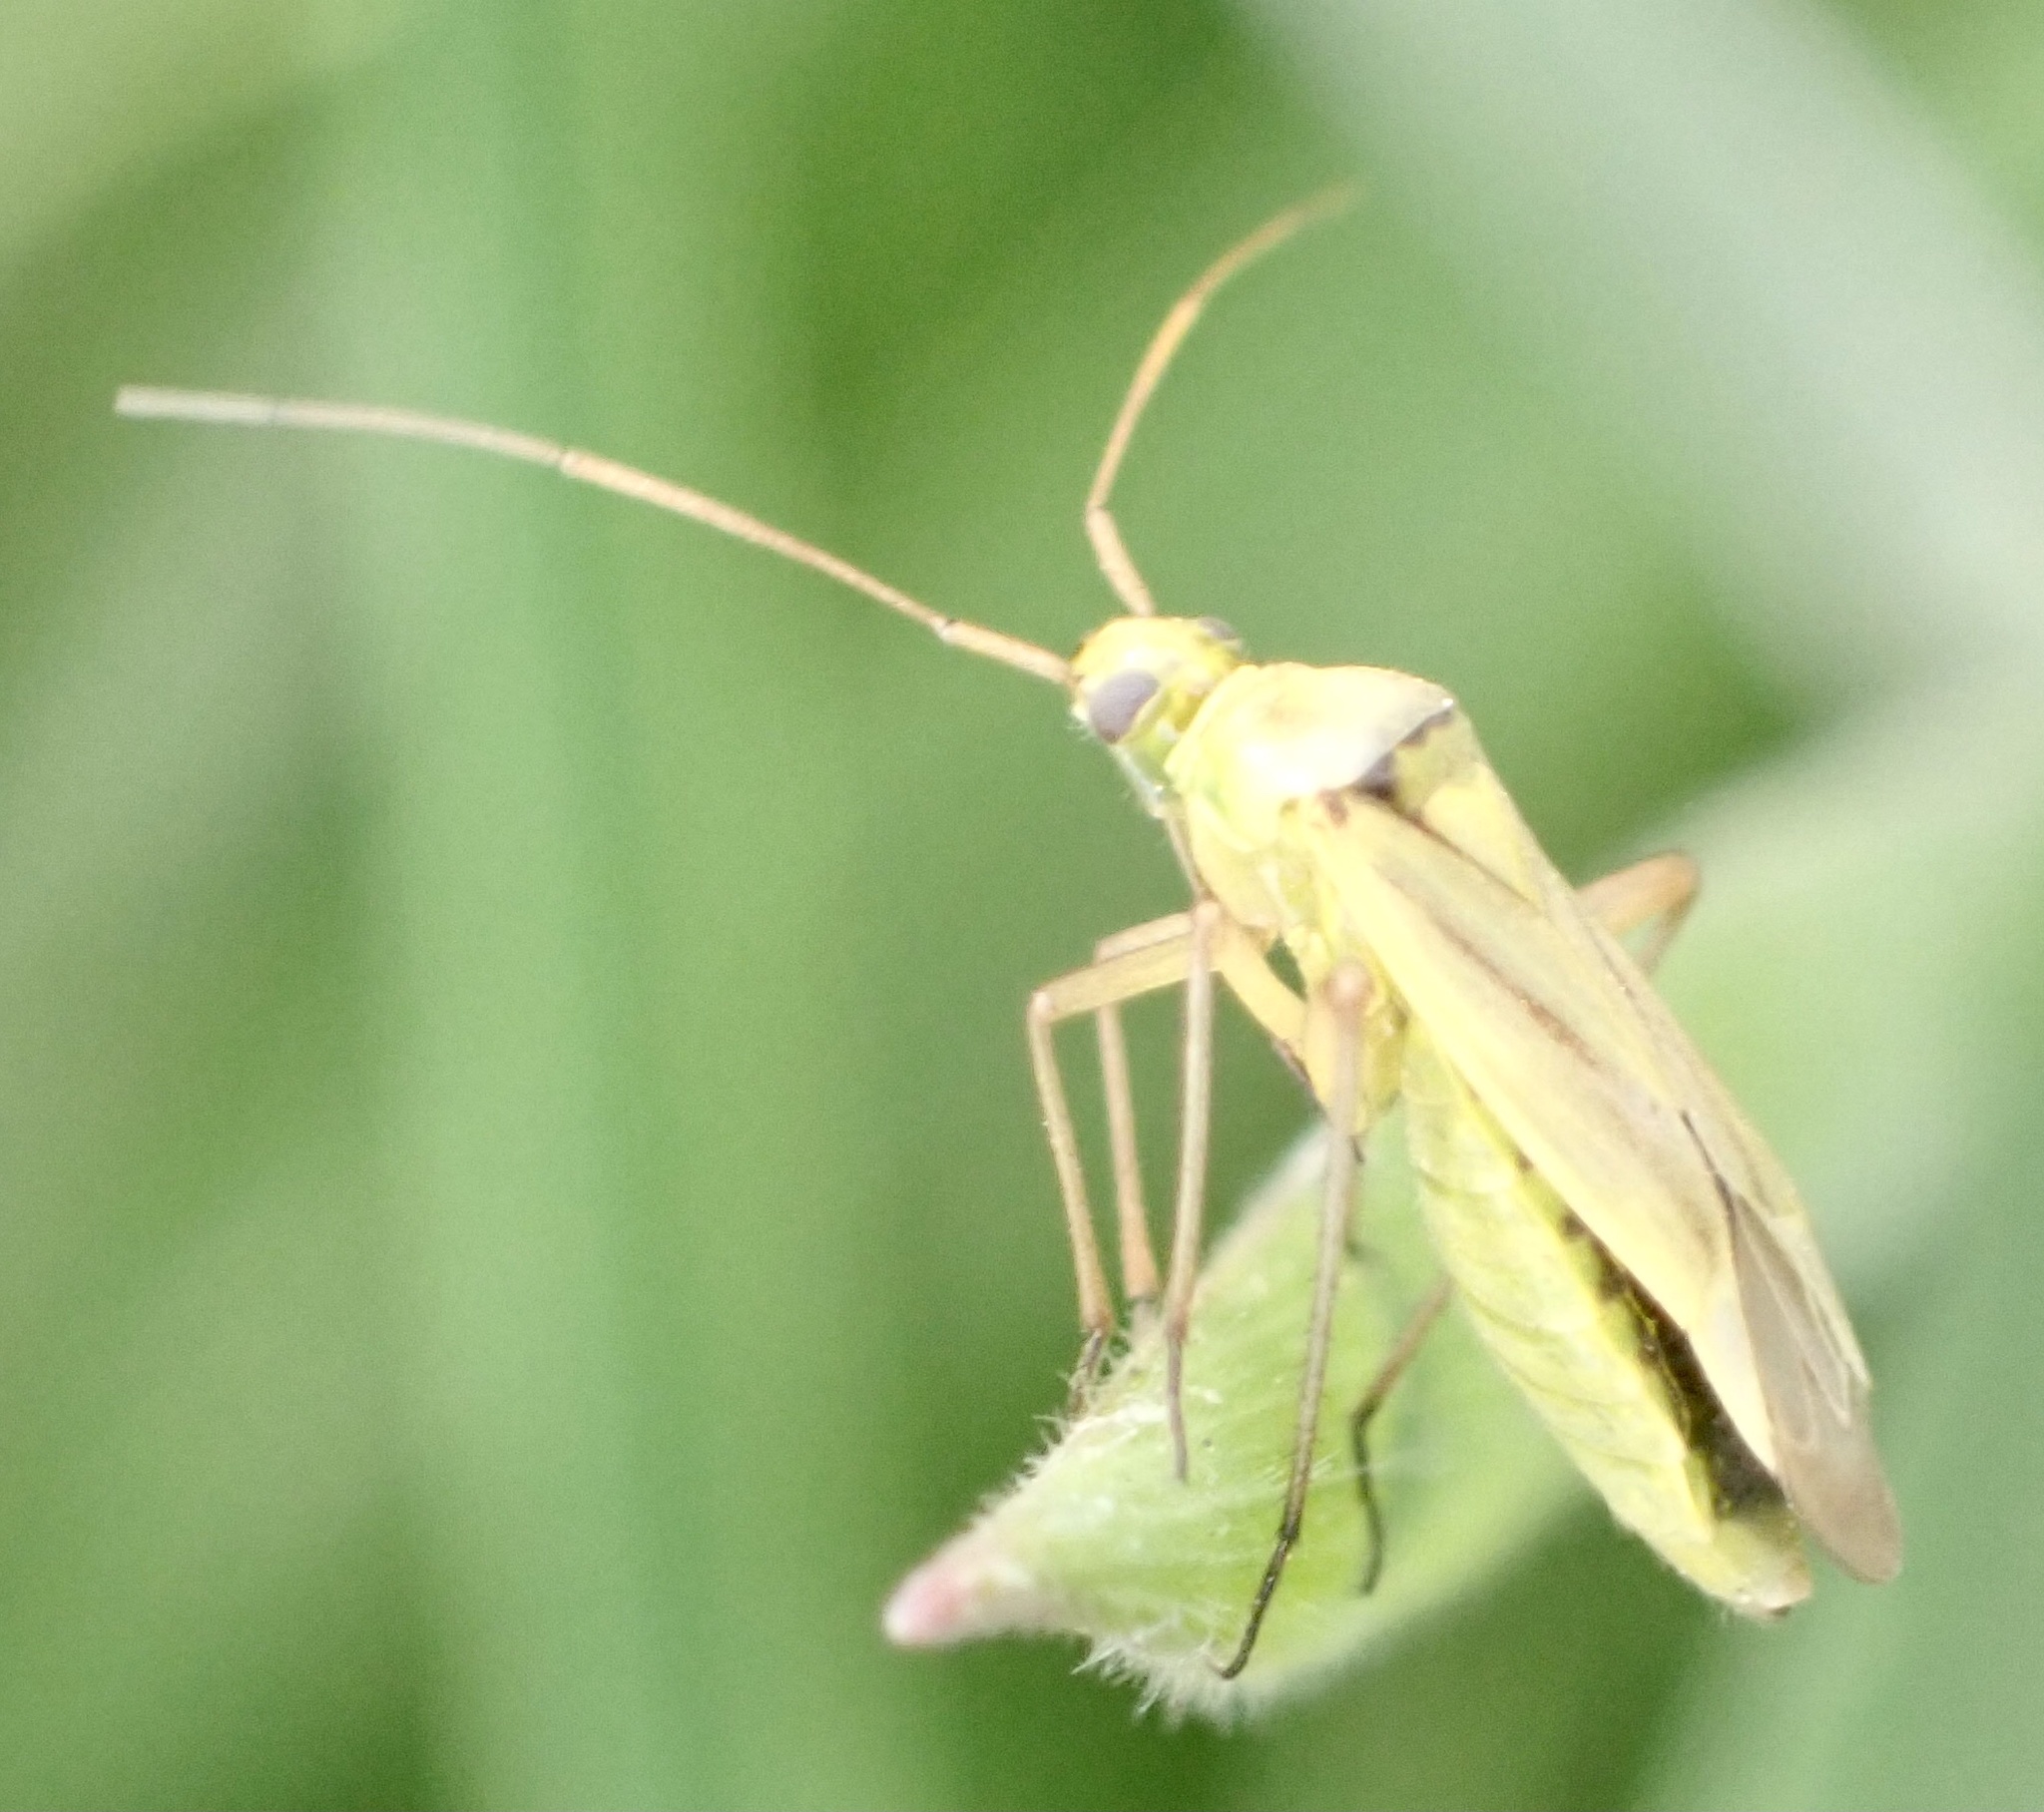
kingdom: Animalia
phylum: Arthropoda
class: Insecta
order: Hemiptera
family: Miridae
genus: Stenotus
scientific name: Stenotus binotatus
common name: Plant bug
